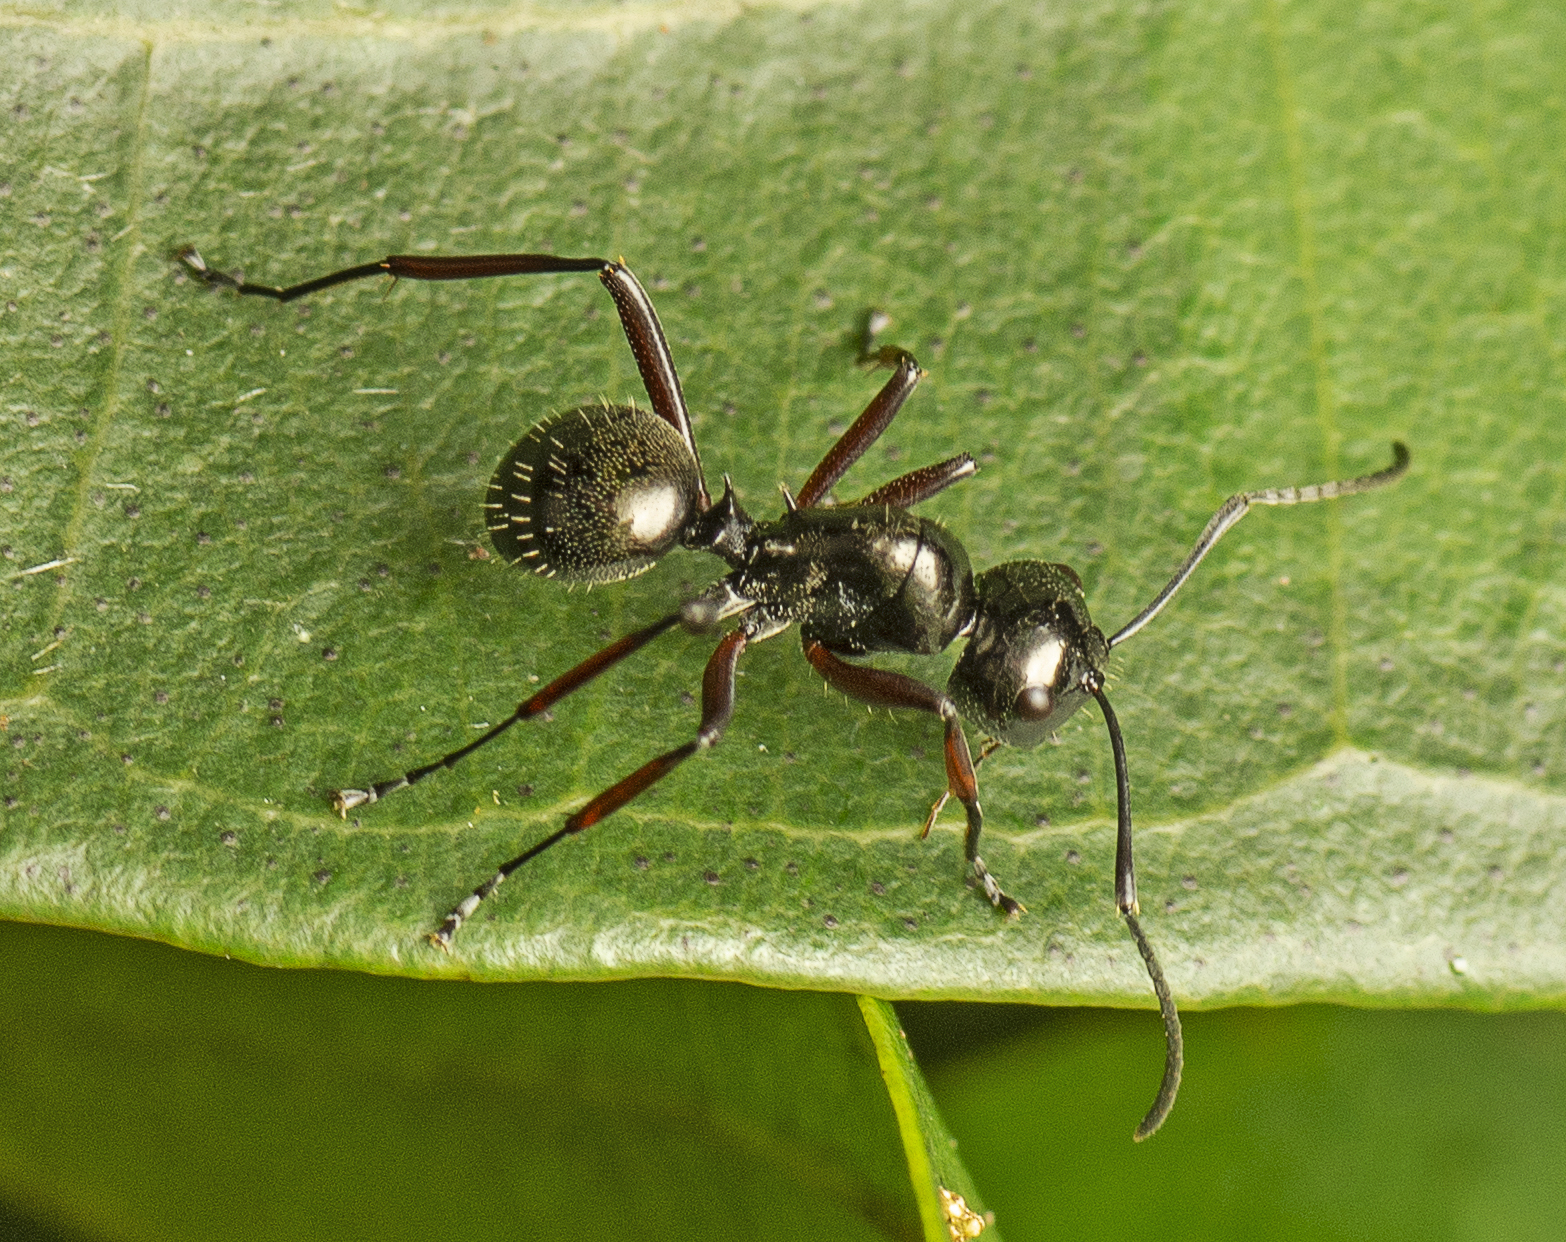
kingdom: Animalia
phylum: Arthropoda
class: Insecta
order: Hymenoptera
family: Formicidae
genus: Polyrhachis
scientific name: Polyrhachis monteithi
